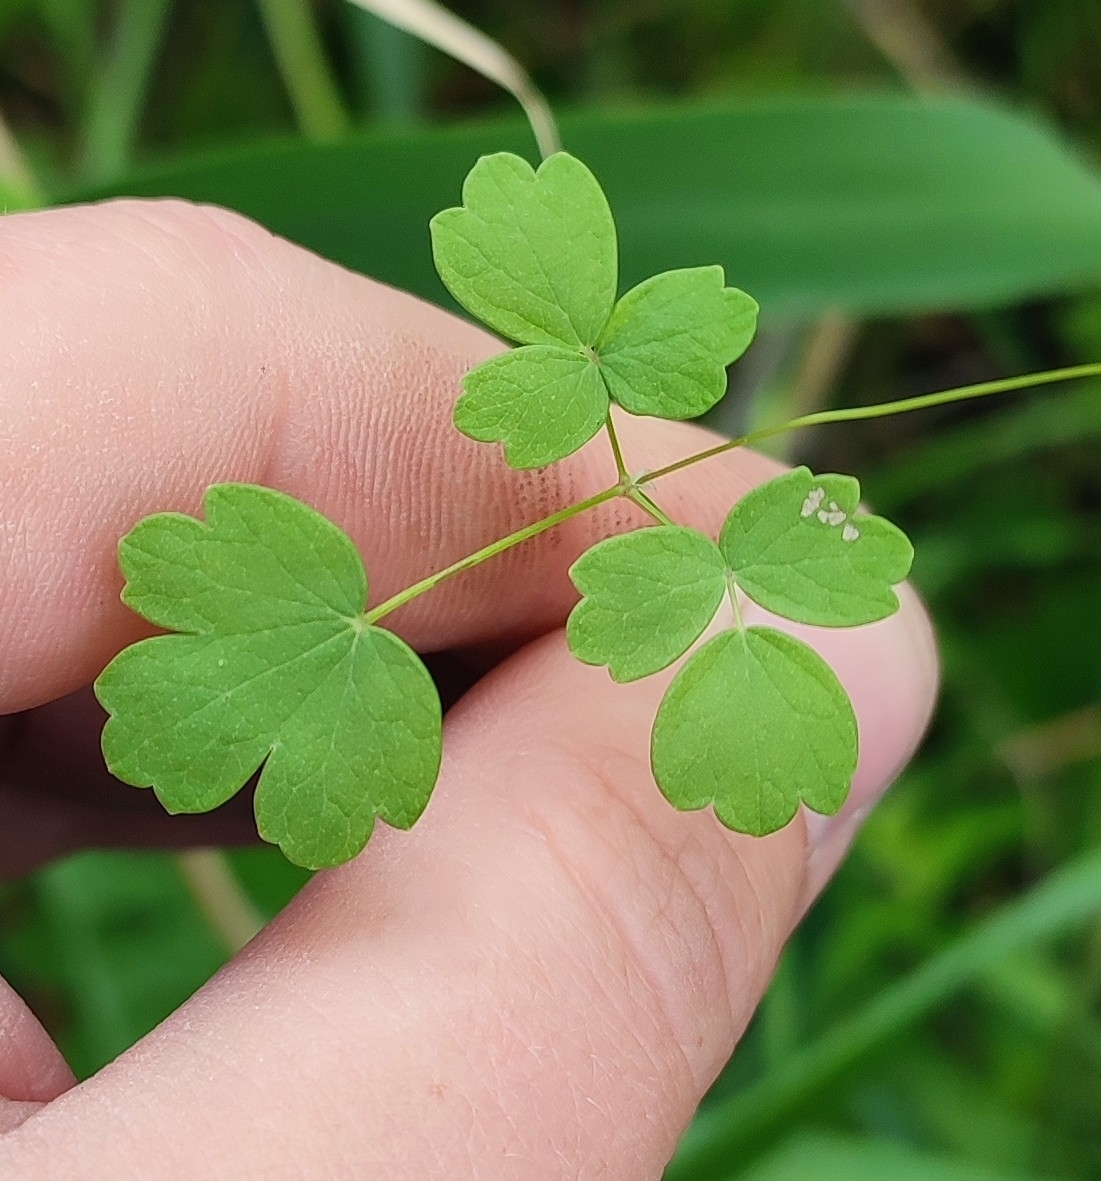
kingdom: Plantae
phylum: Tracheophyta
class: Magnoliopsida
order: Ranunculales
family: Ranunculaceae
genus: Thalictrum
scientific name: Thalictrum minus
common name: Lesser meadow-rue
